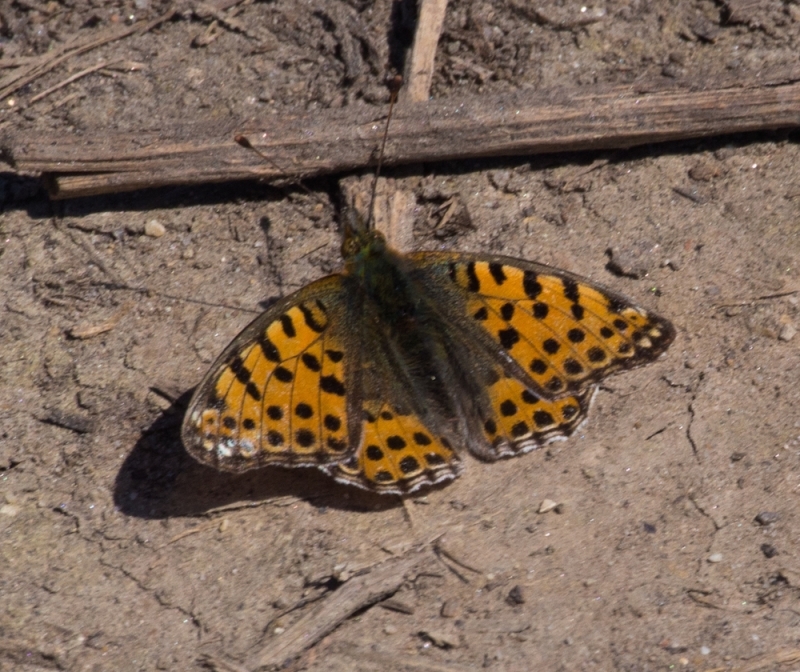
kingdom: Animalia
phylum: Arthropoda
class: Insecta
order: Lepidoptera
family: Nymphalidae
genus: Issoria
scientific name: Issoria lathonia
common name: Queen of spain fritillary
